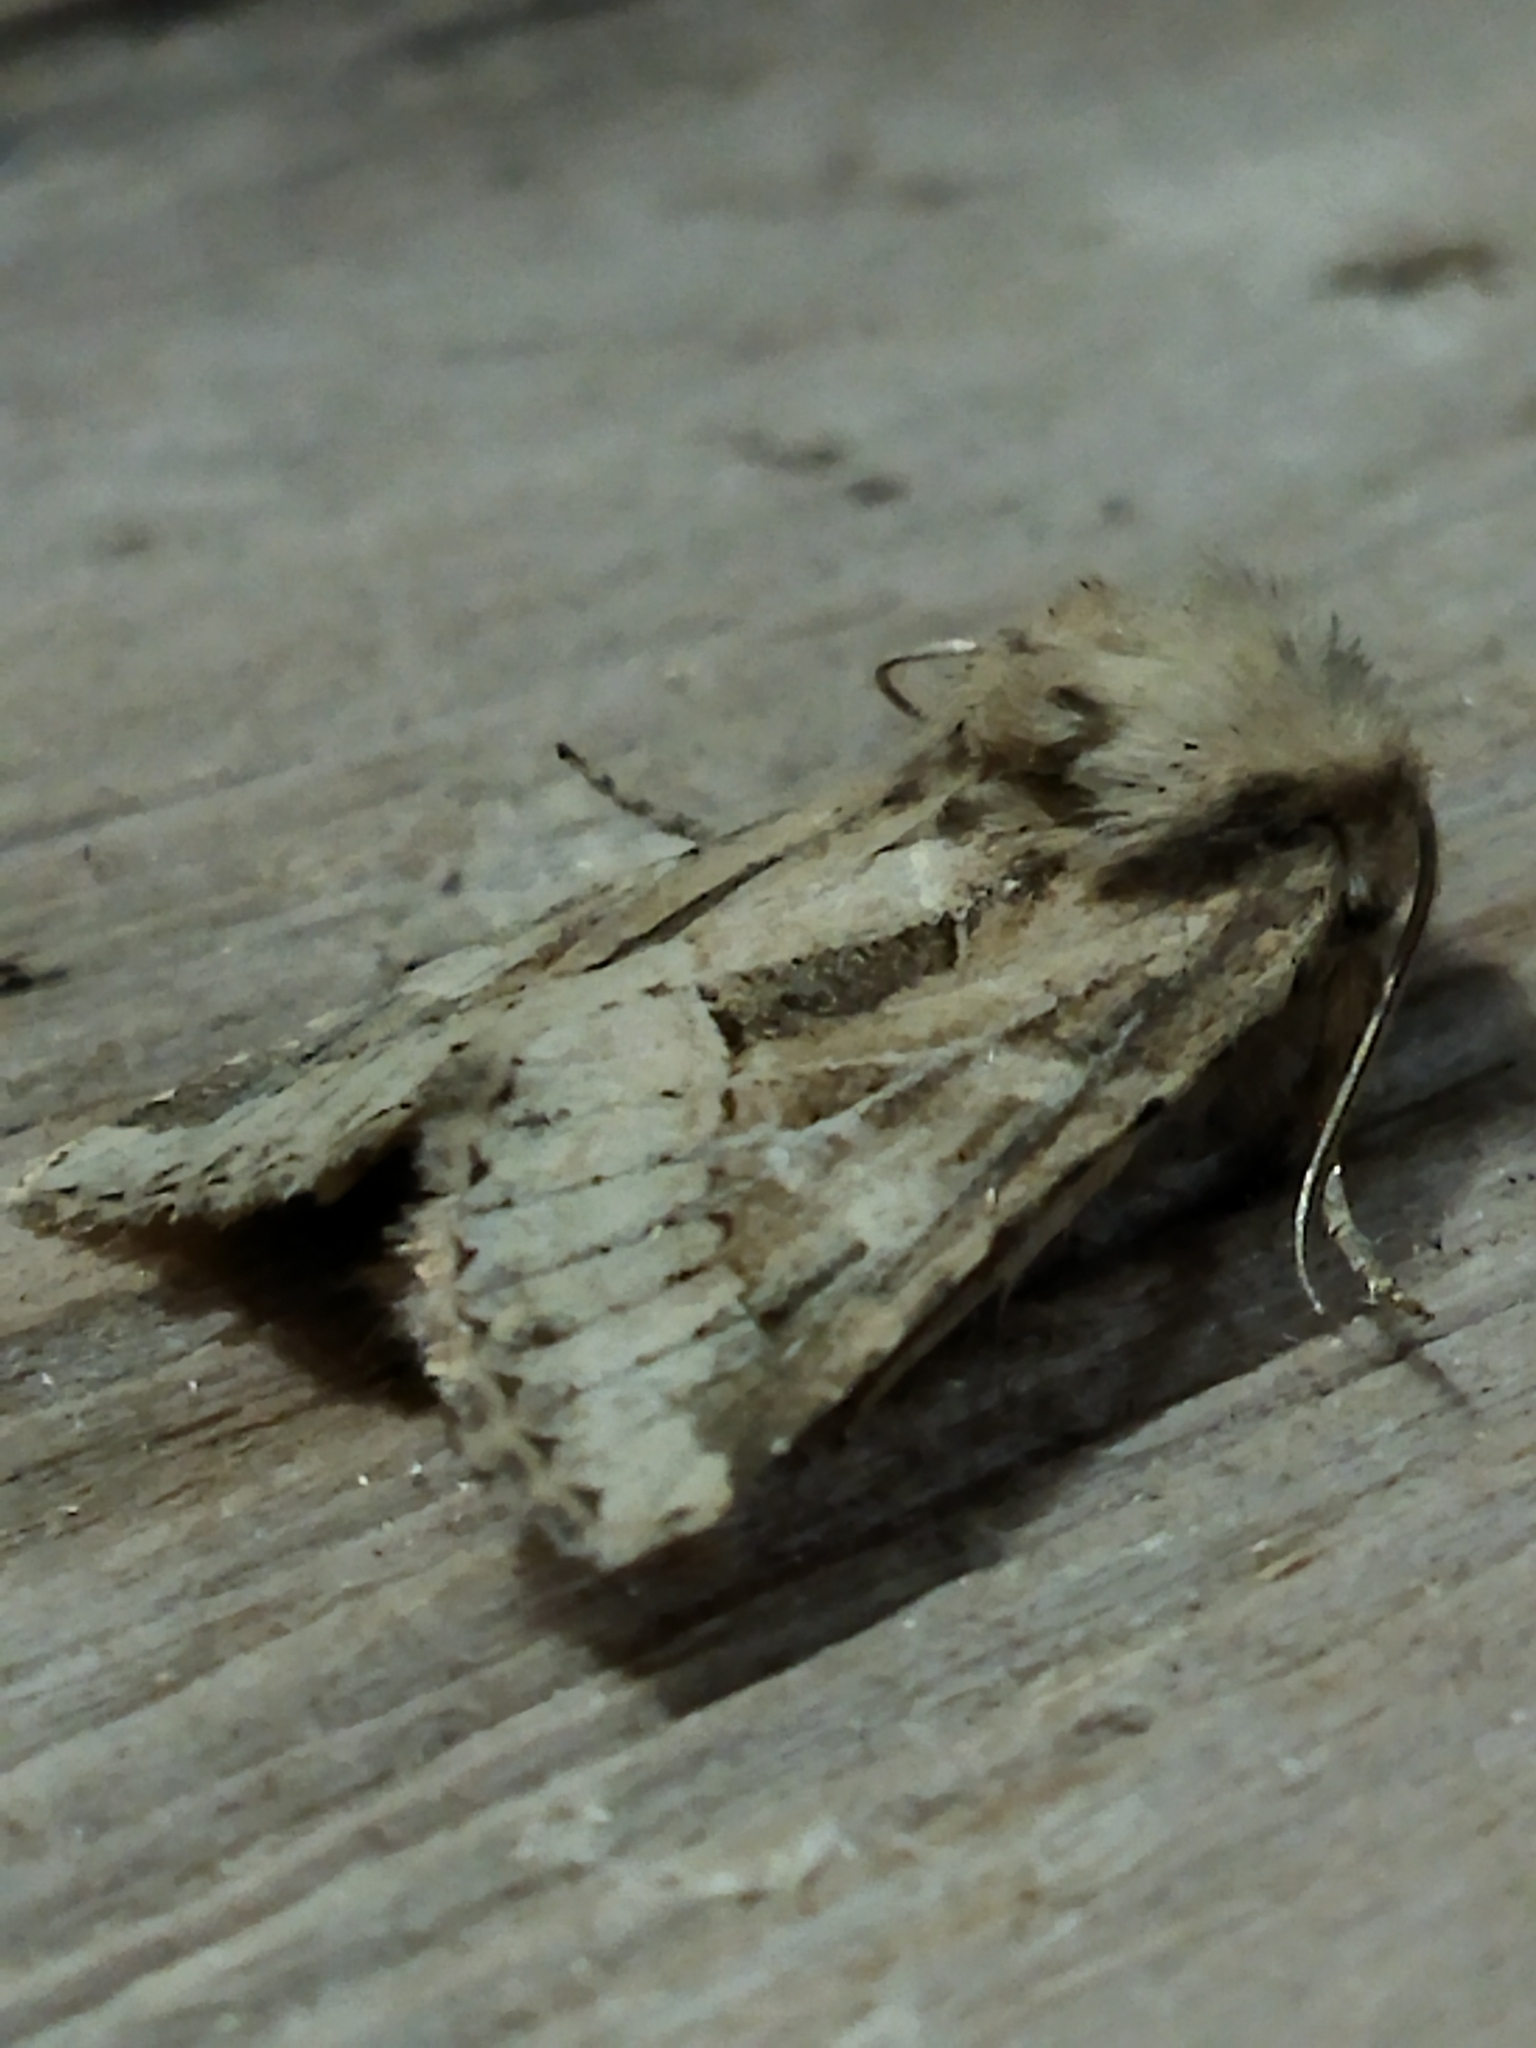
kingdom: Animalia
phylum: Arthropoda
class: Insecta
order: Lepidoptera
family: Noctuidae
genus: Luperina
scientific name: Luperina dumerilii
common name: Dumeril's rustic
